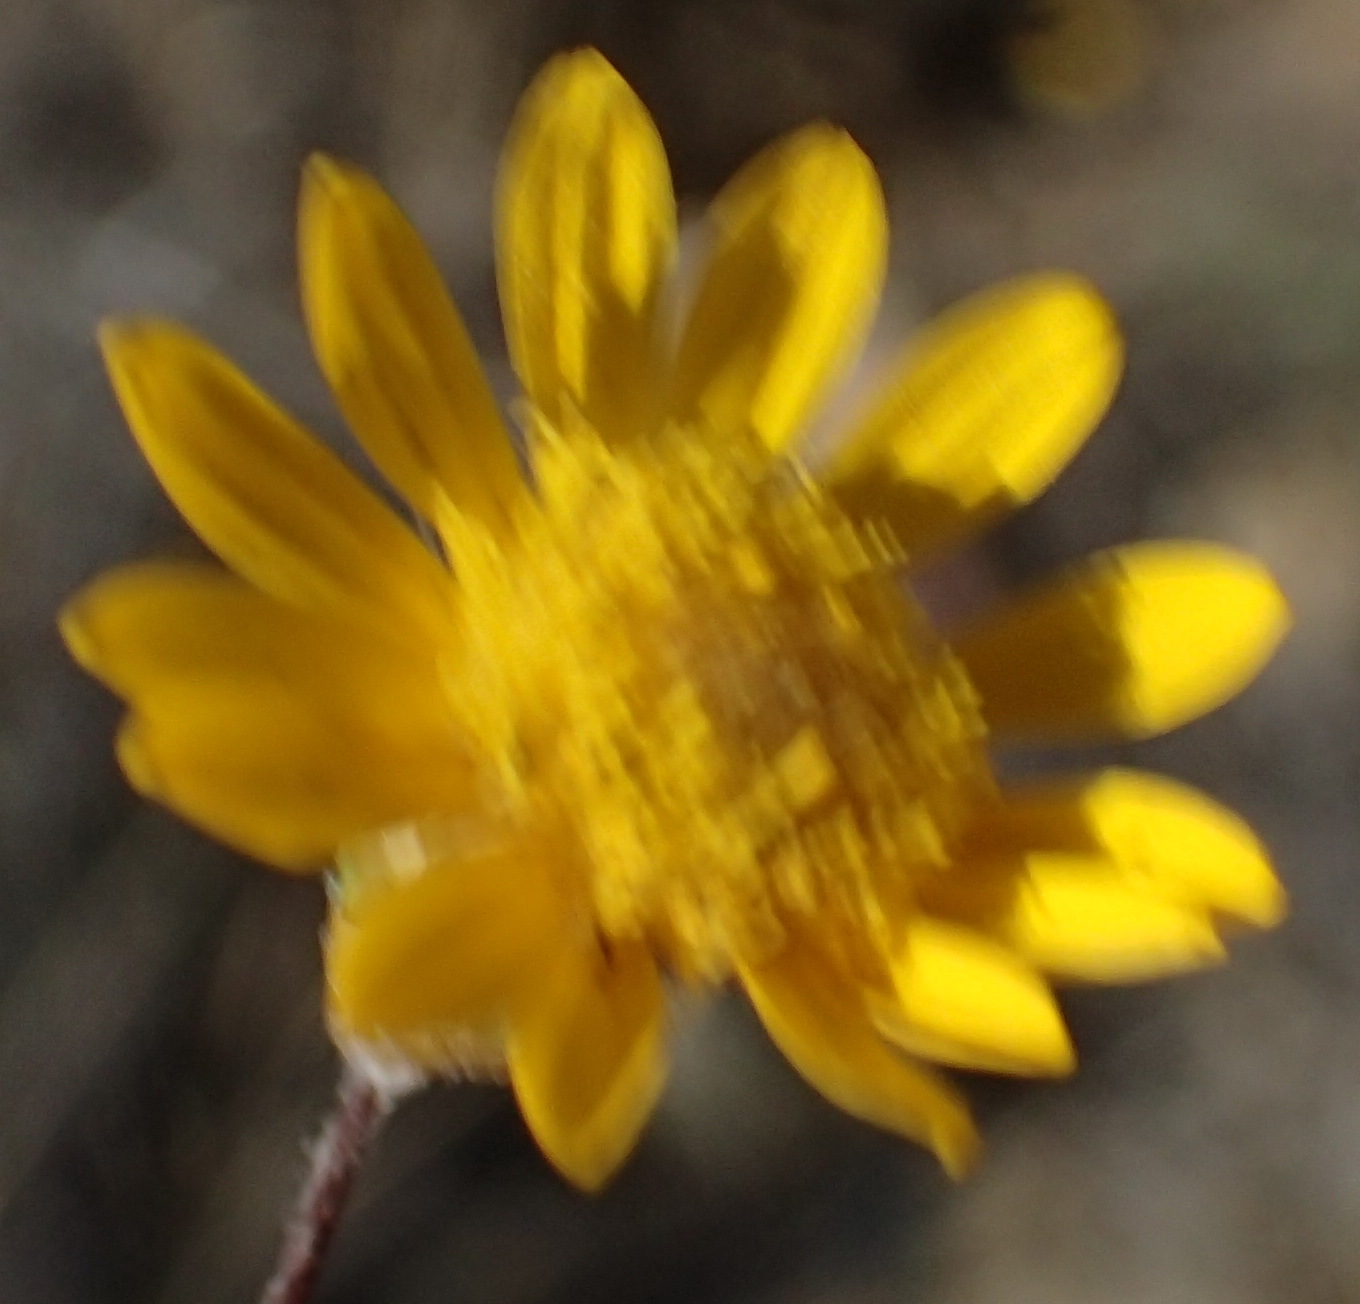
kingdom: Plantae
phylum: Tracheophyta
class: Magnoliopsida
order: Asterales
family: Asteraceae
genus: Leysera
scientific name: Leysera gnaphalodes
